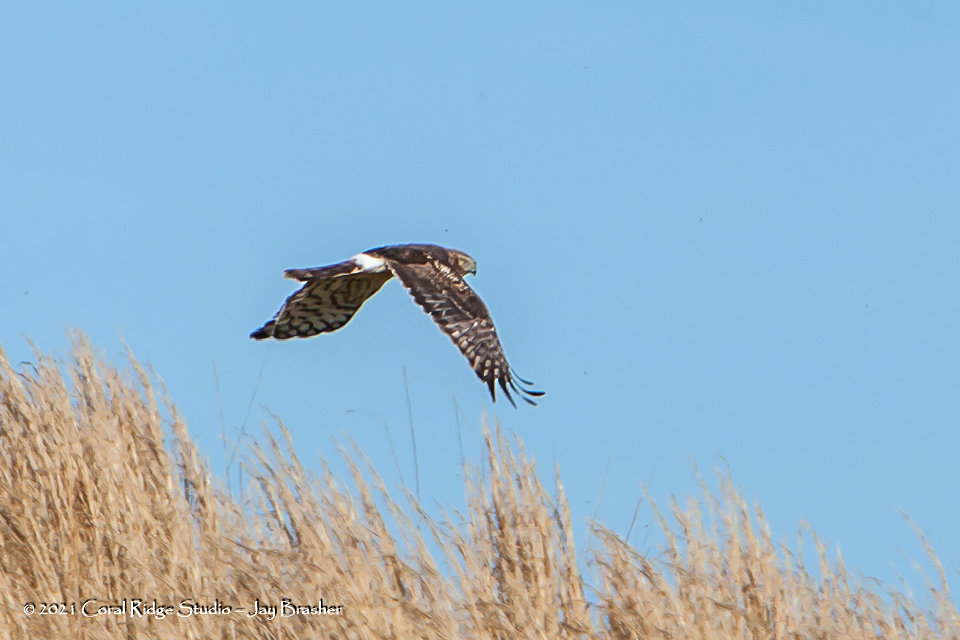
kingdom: Animalia
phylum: Chordata
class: Aves
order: Accipitriformes
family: Accipitridae
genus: Circus
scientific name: Circus cyaneus
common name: Hen harrier
